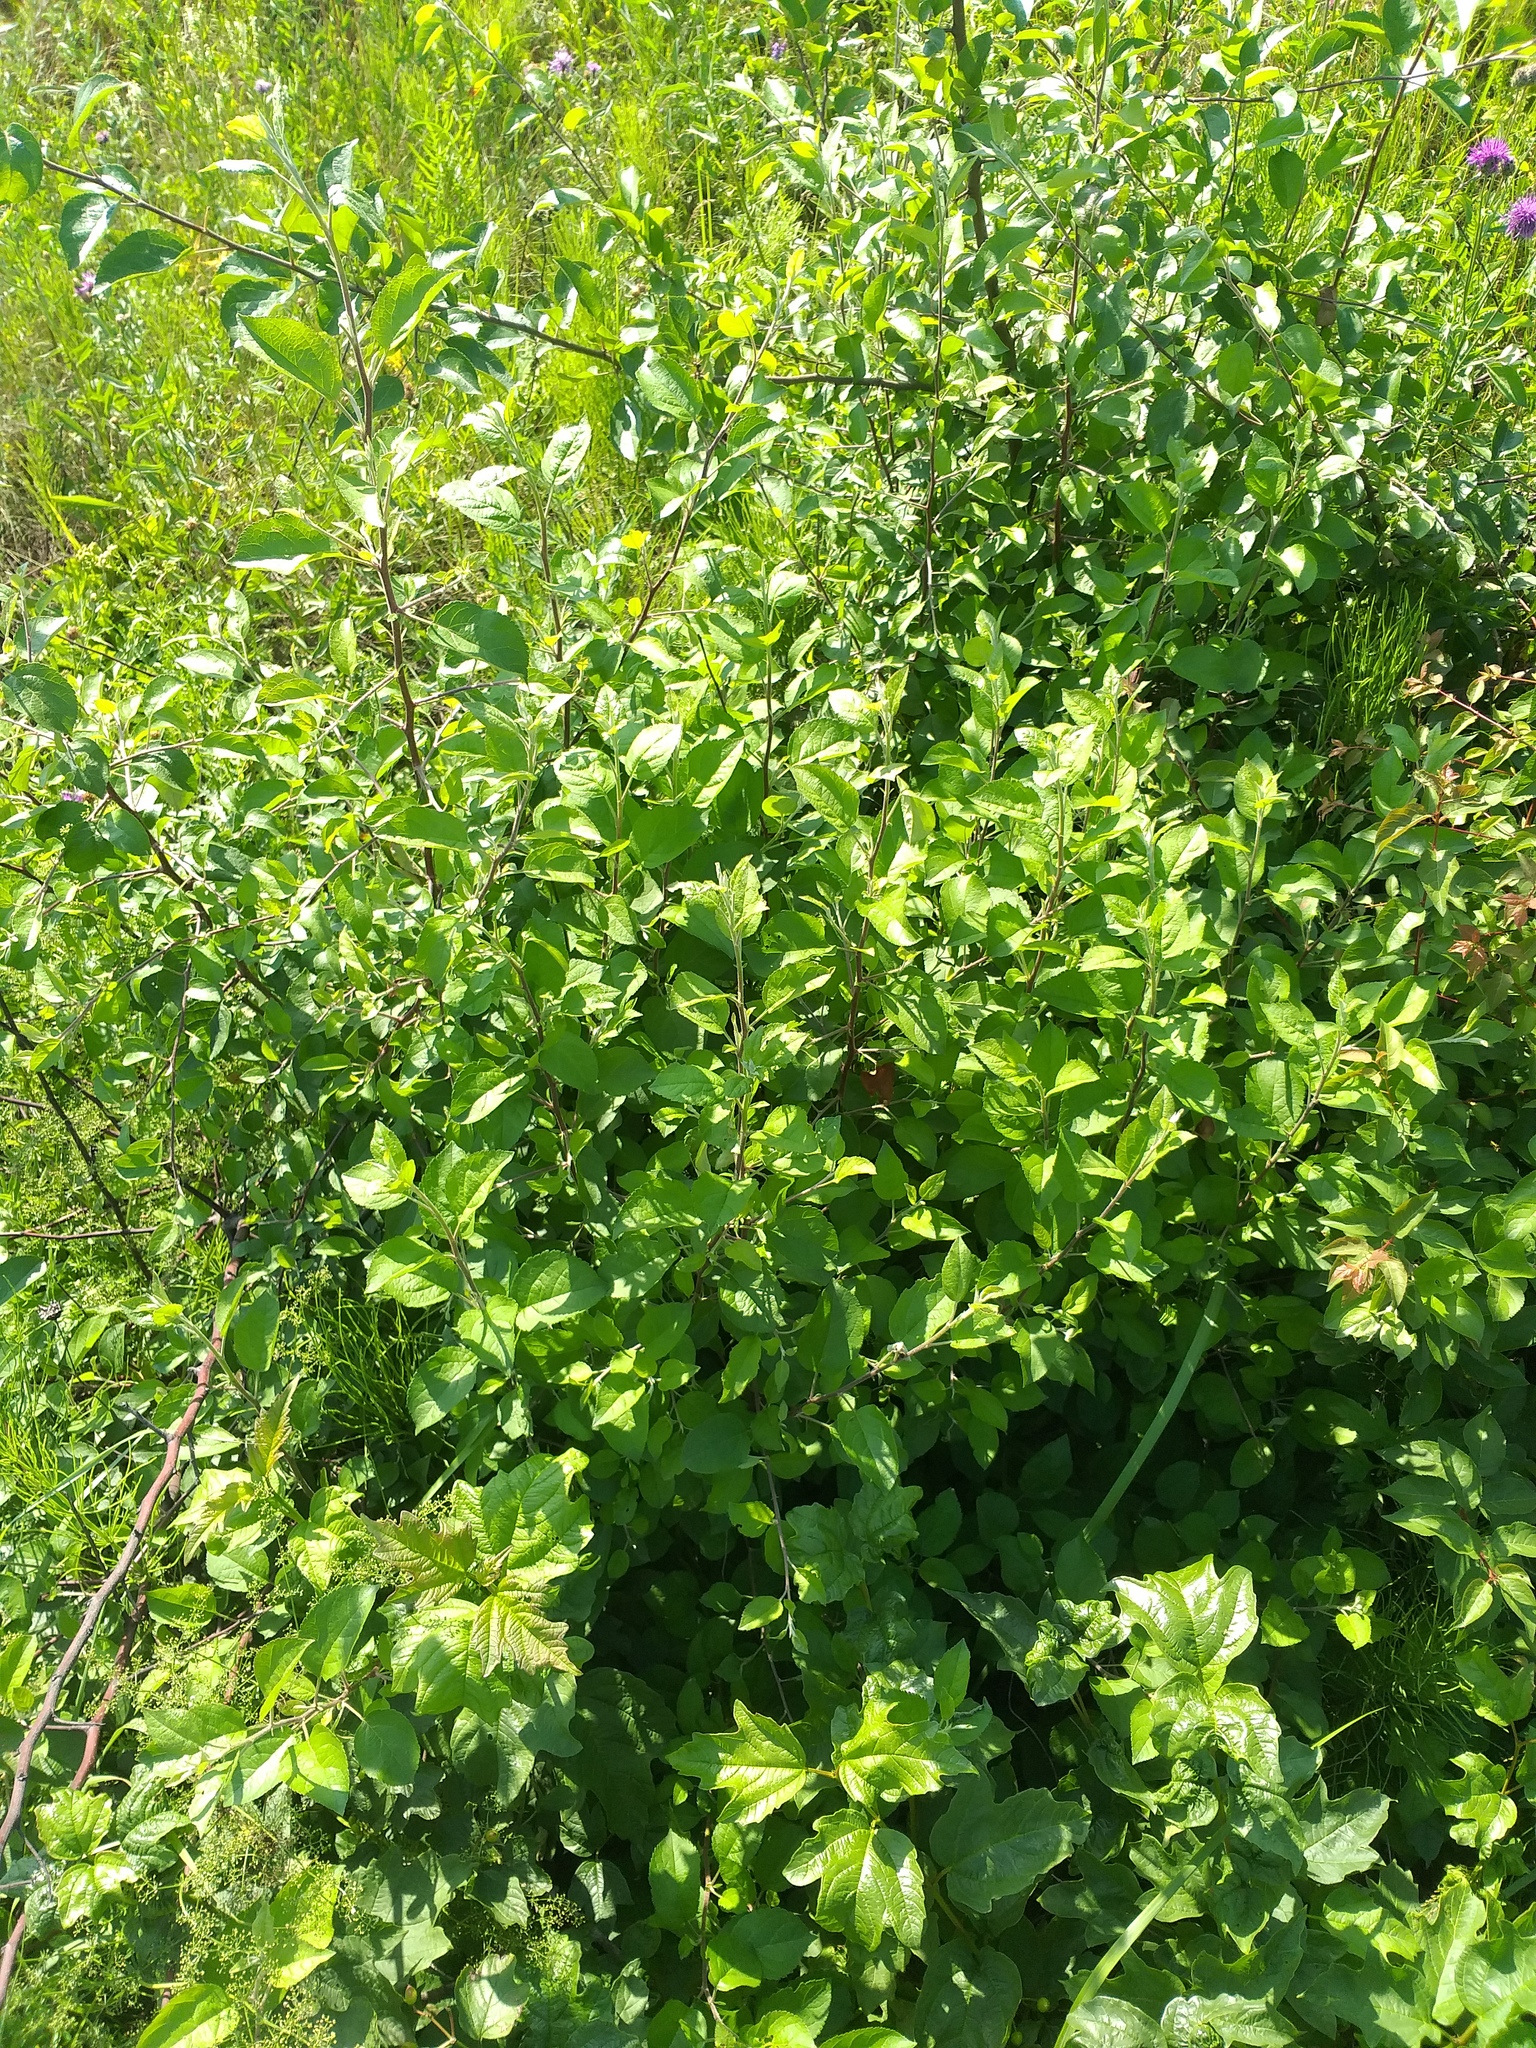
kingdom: Plantae
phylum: Tracheophyta
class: Magnoliopsida
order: Rosales
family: Rosaceae
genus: Malus
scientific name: Malus domestica
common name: Apple
